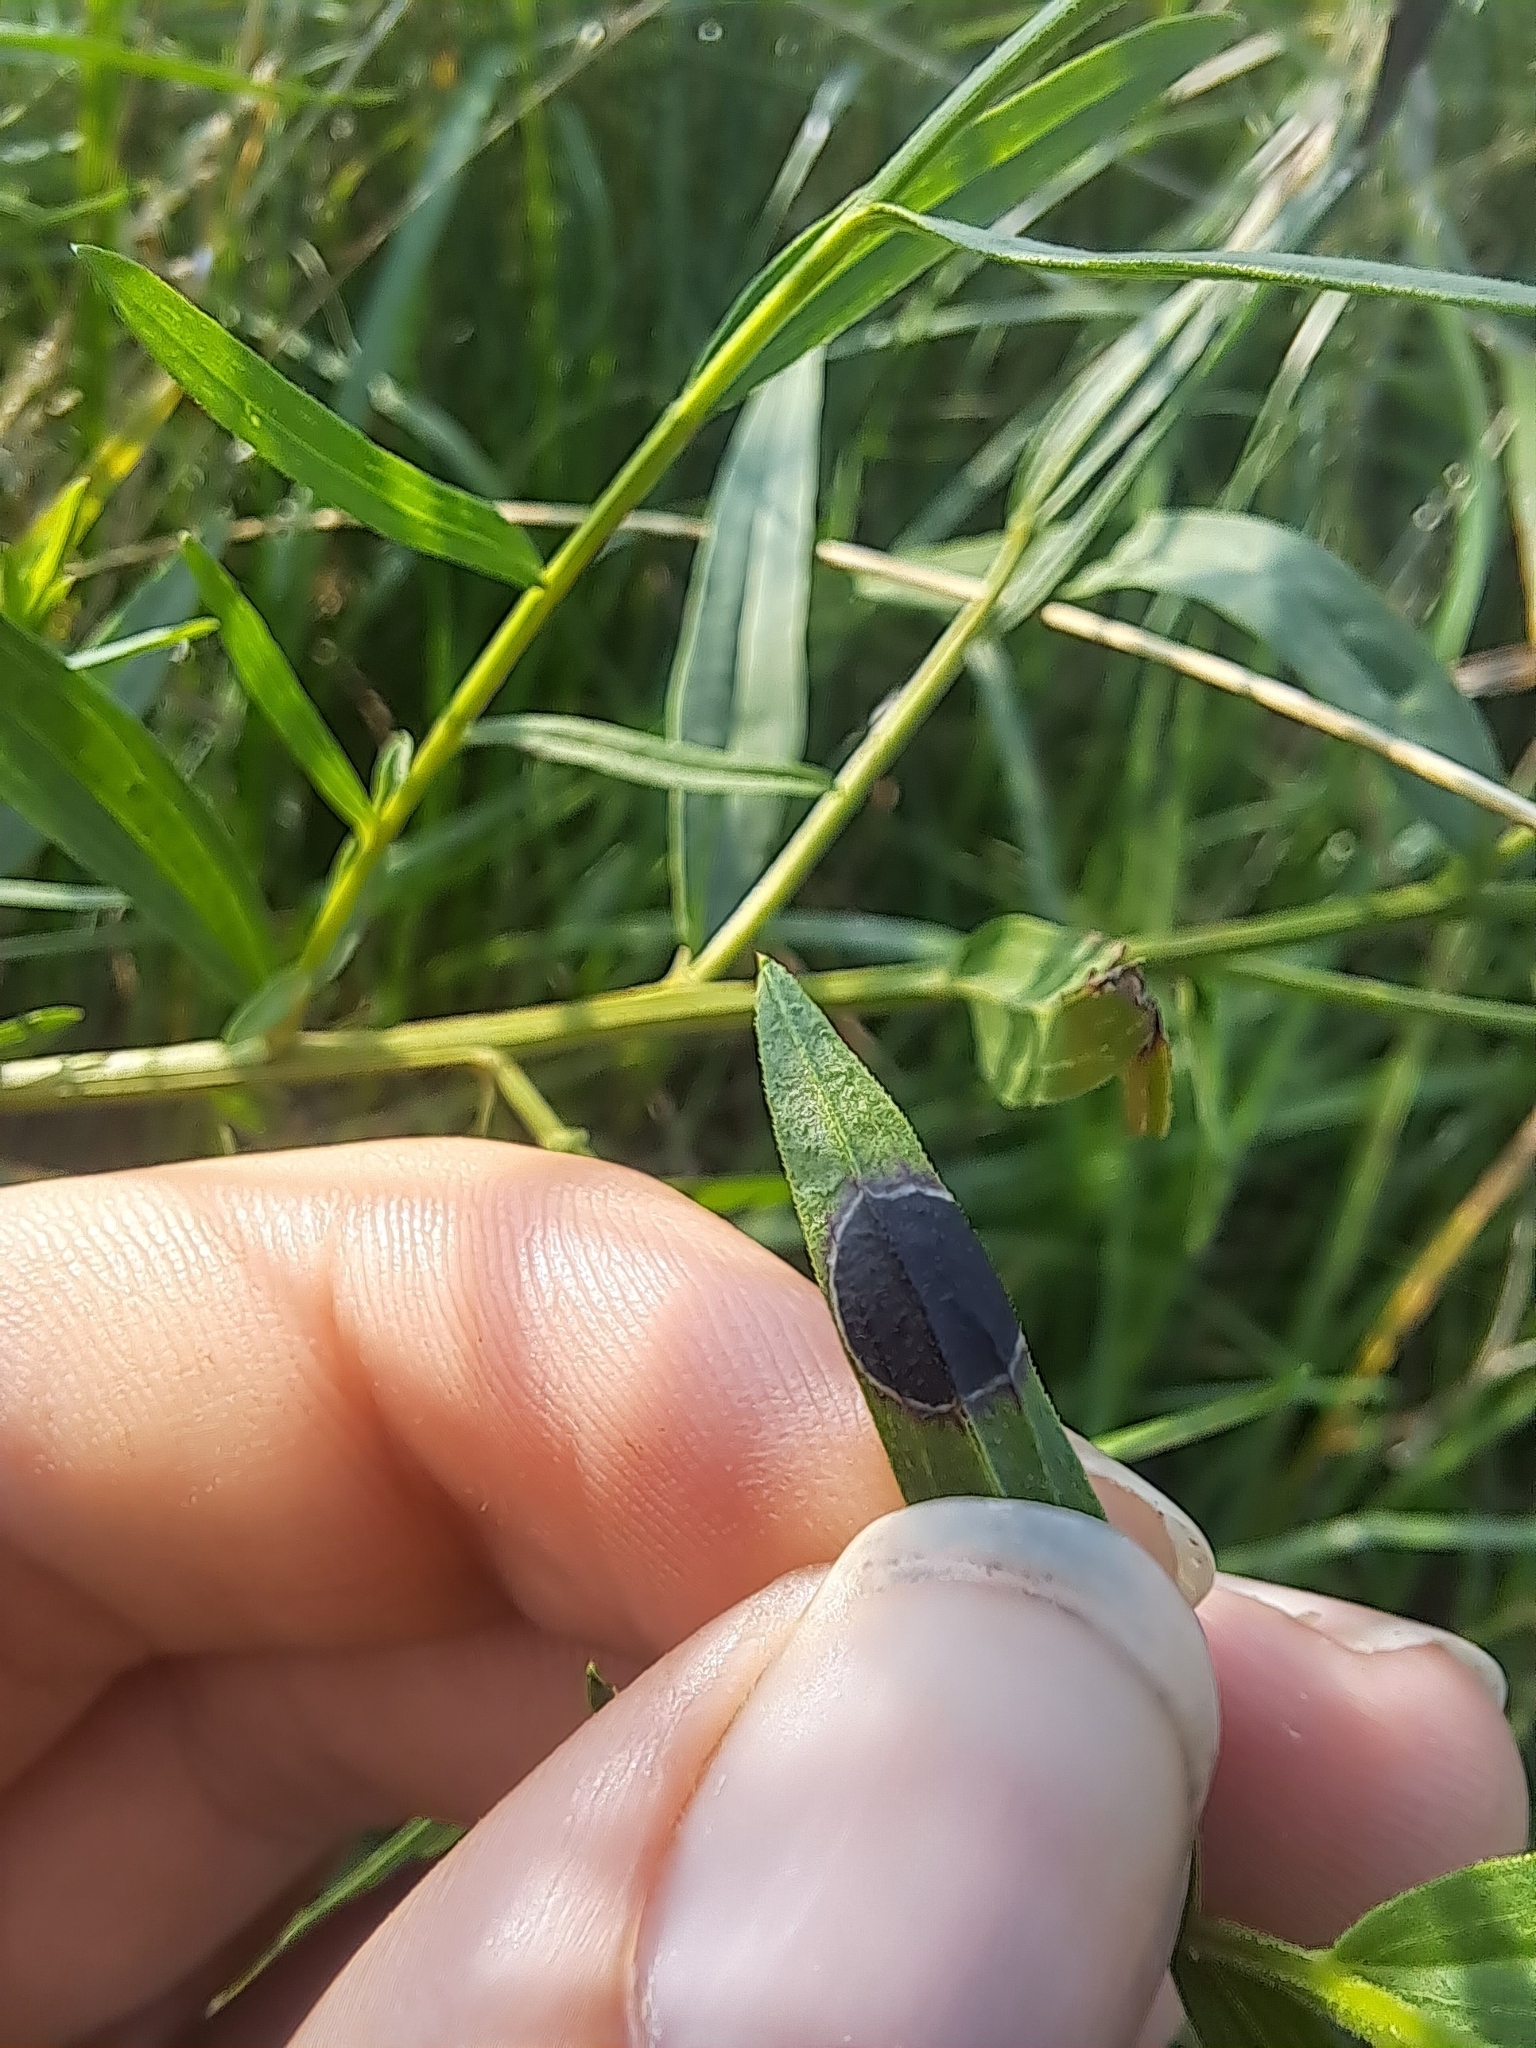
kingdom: Animalia
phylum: Arthropoda
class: Insecta
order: Diptera
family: Cecidomyiidae
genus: Asteromyia
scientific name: Asteromyia euthamiae
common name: Euthamia leaf gall midge
